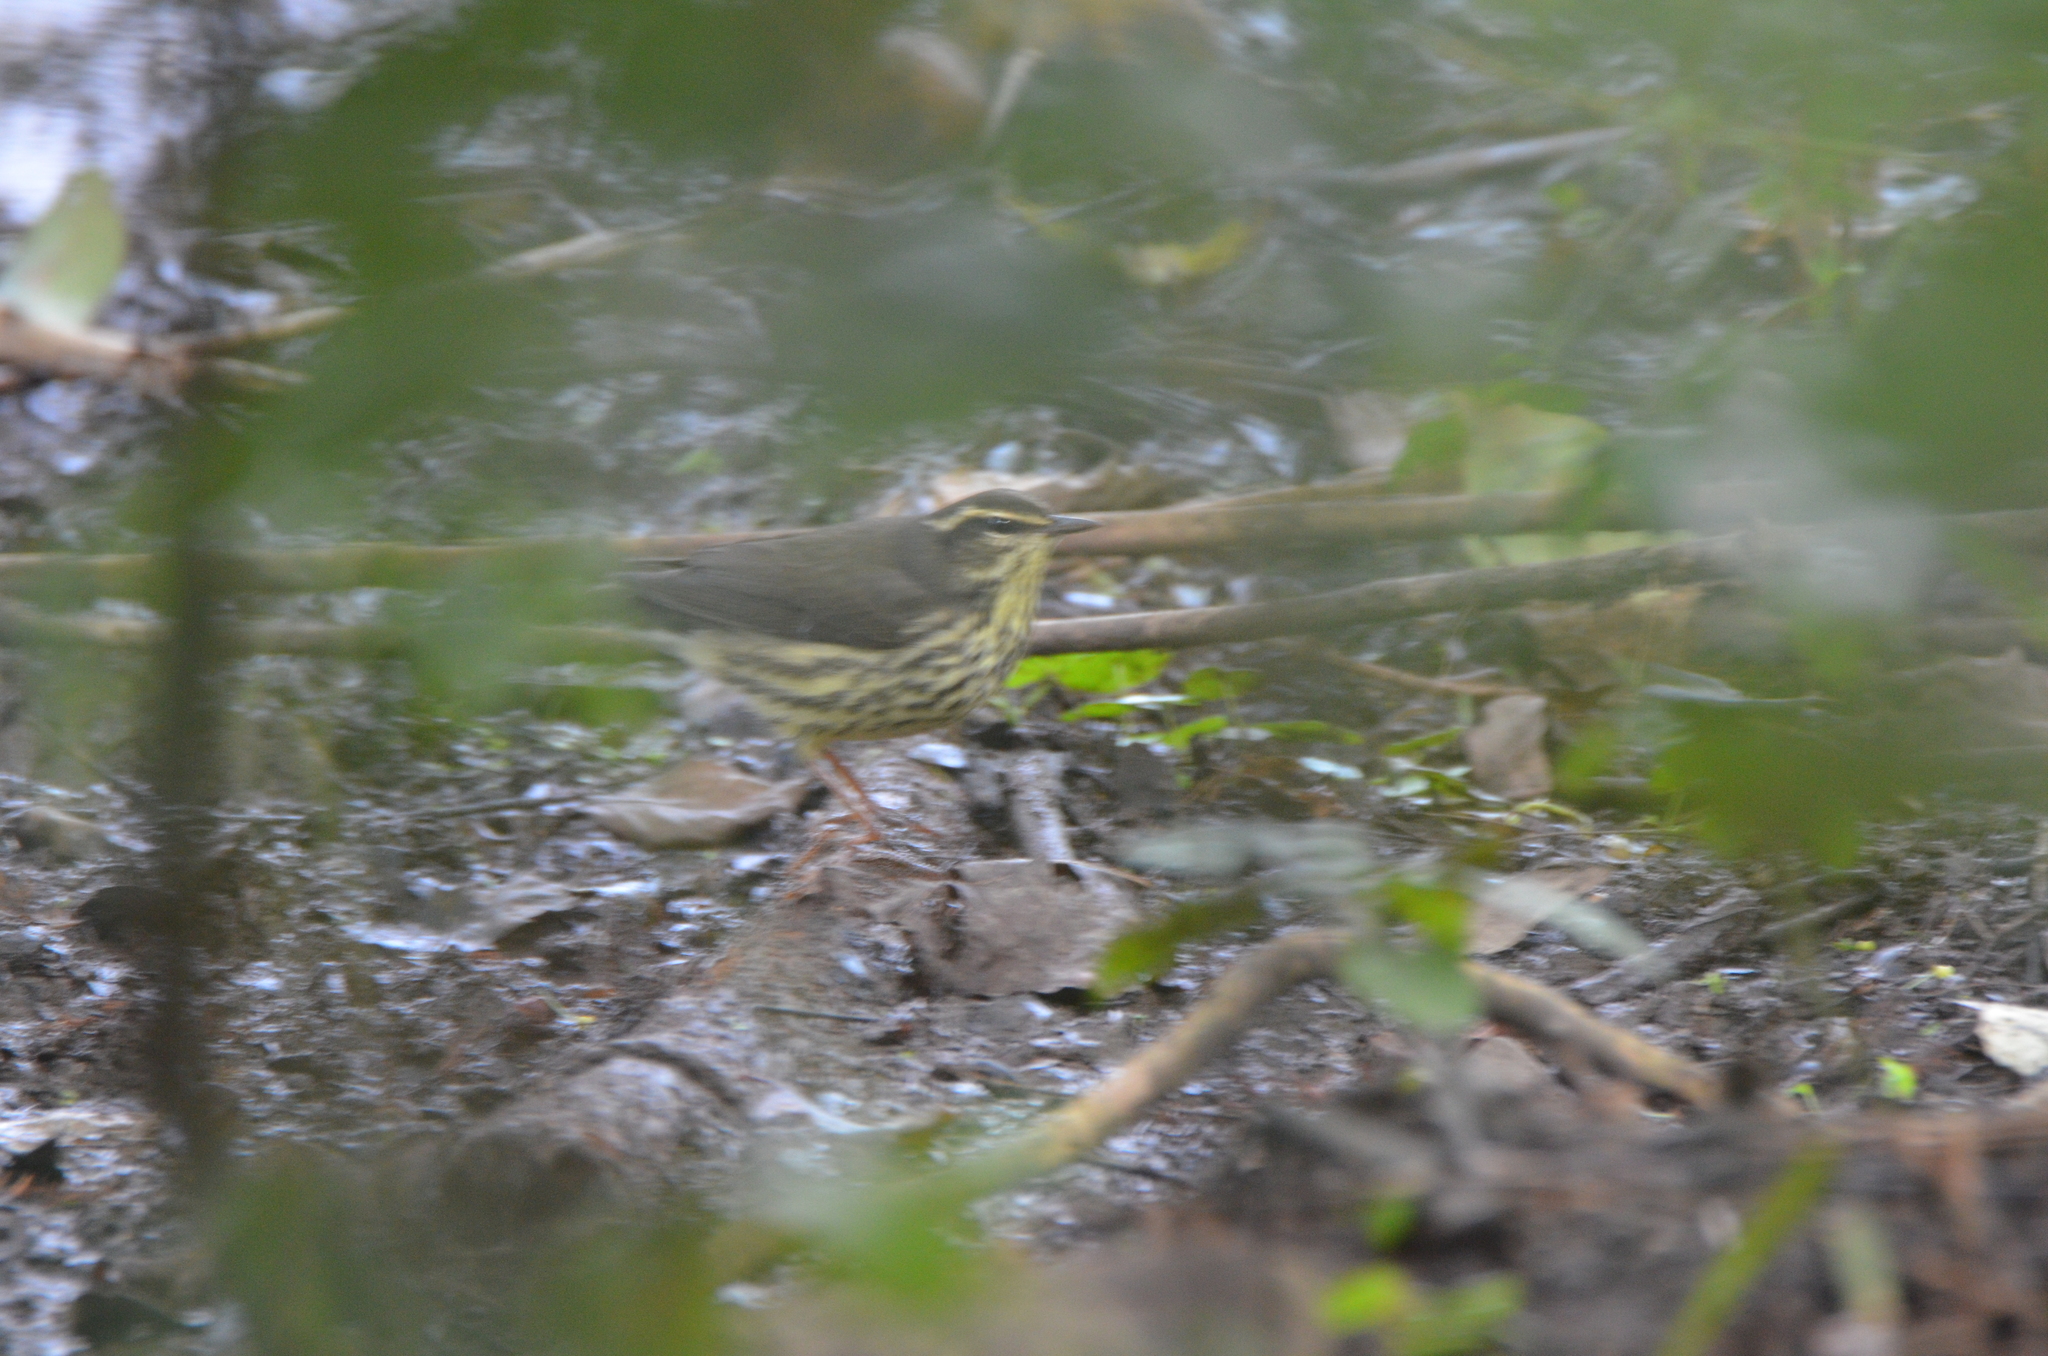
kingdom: Animalia
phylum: Chordata
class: Aves
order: Passeriformes
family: Parulidae
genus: Parkesia
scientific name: Parkesia noveboracensis
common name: Northern waterthrush
